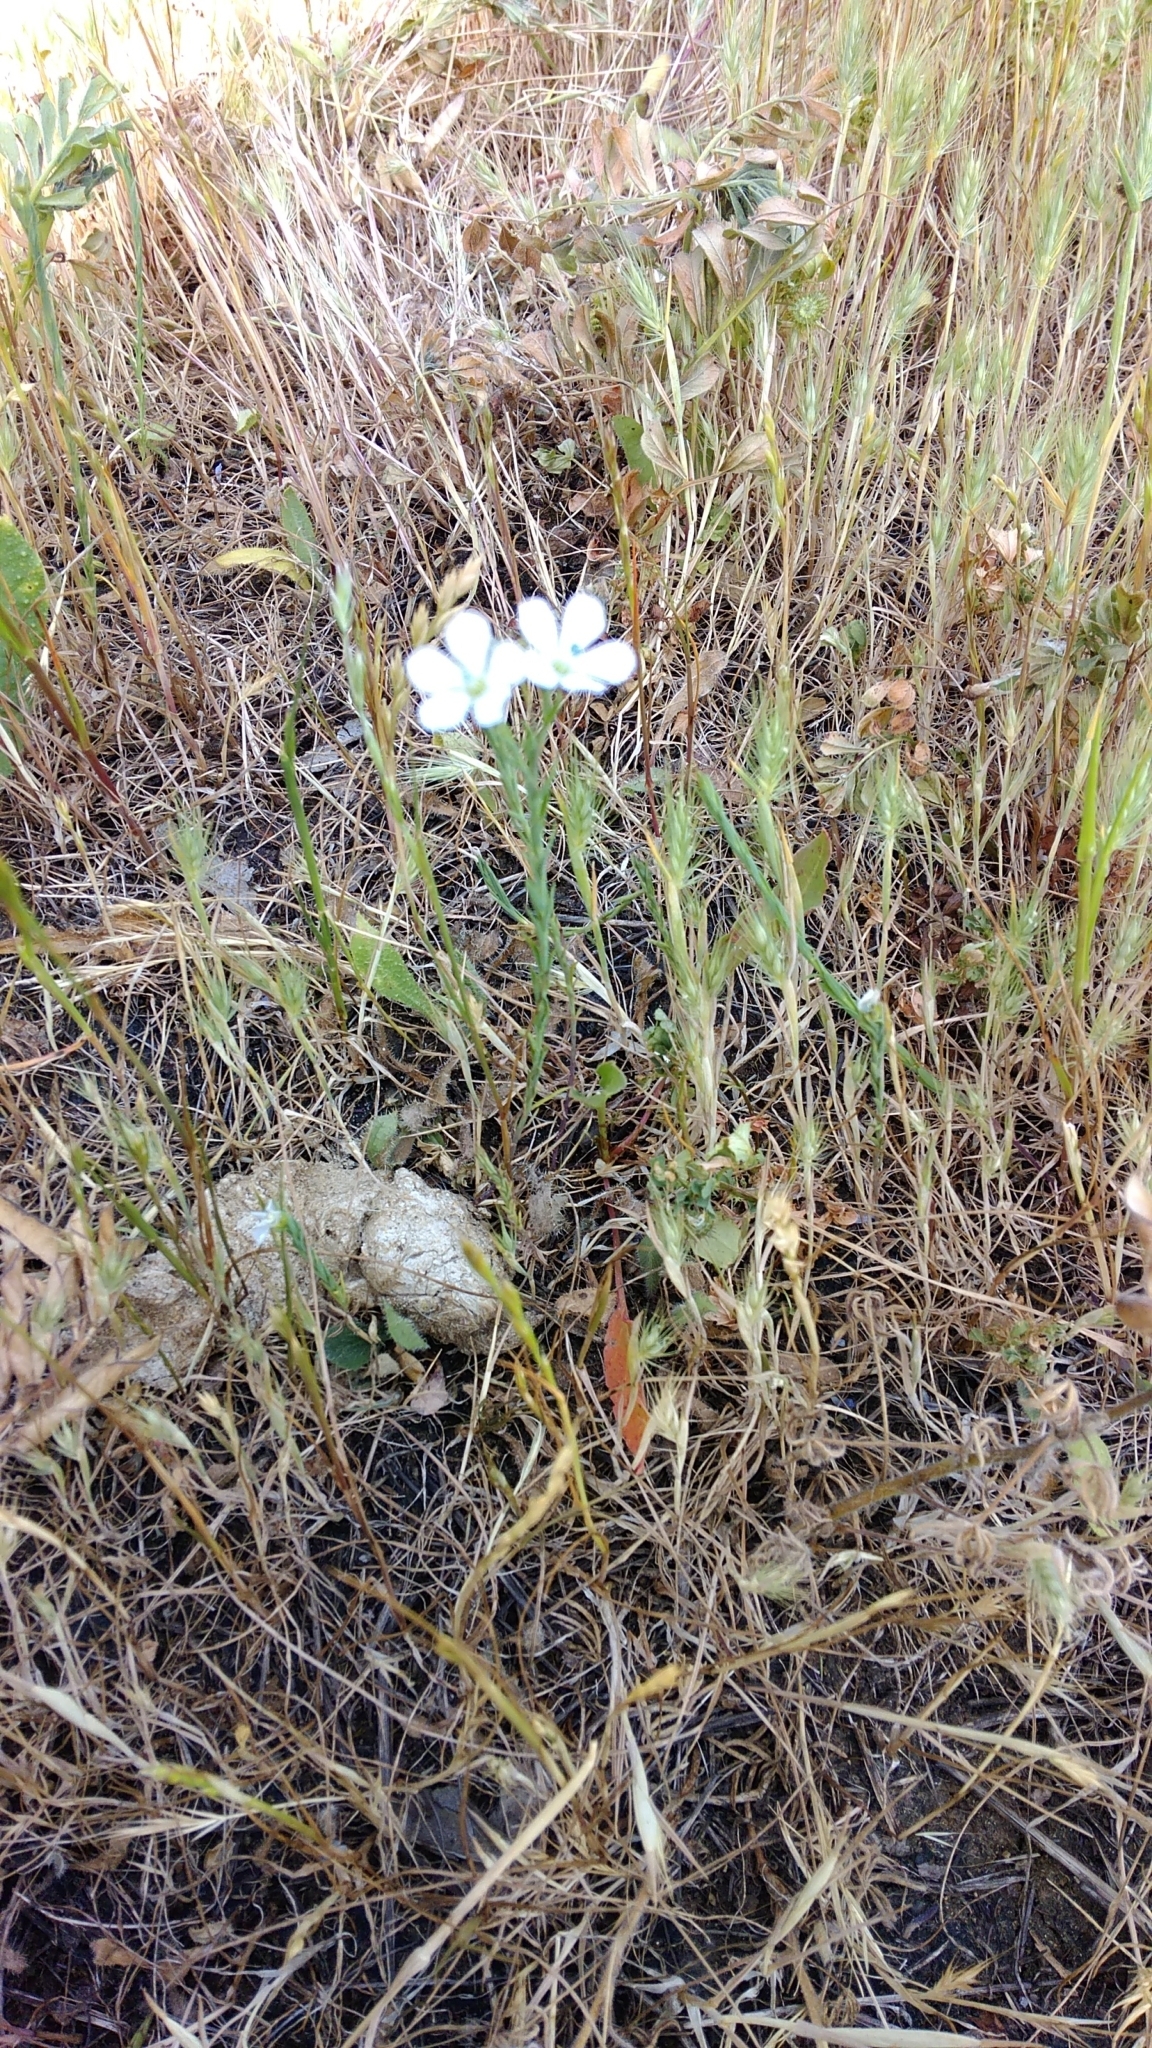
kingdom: Plantae
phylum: Tracheophyta
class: Magnoliopsida
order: Malpighiales
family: Linaceae
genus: Linum
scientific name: Linum bienne
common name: Pale flax
